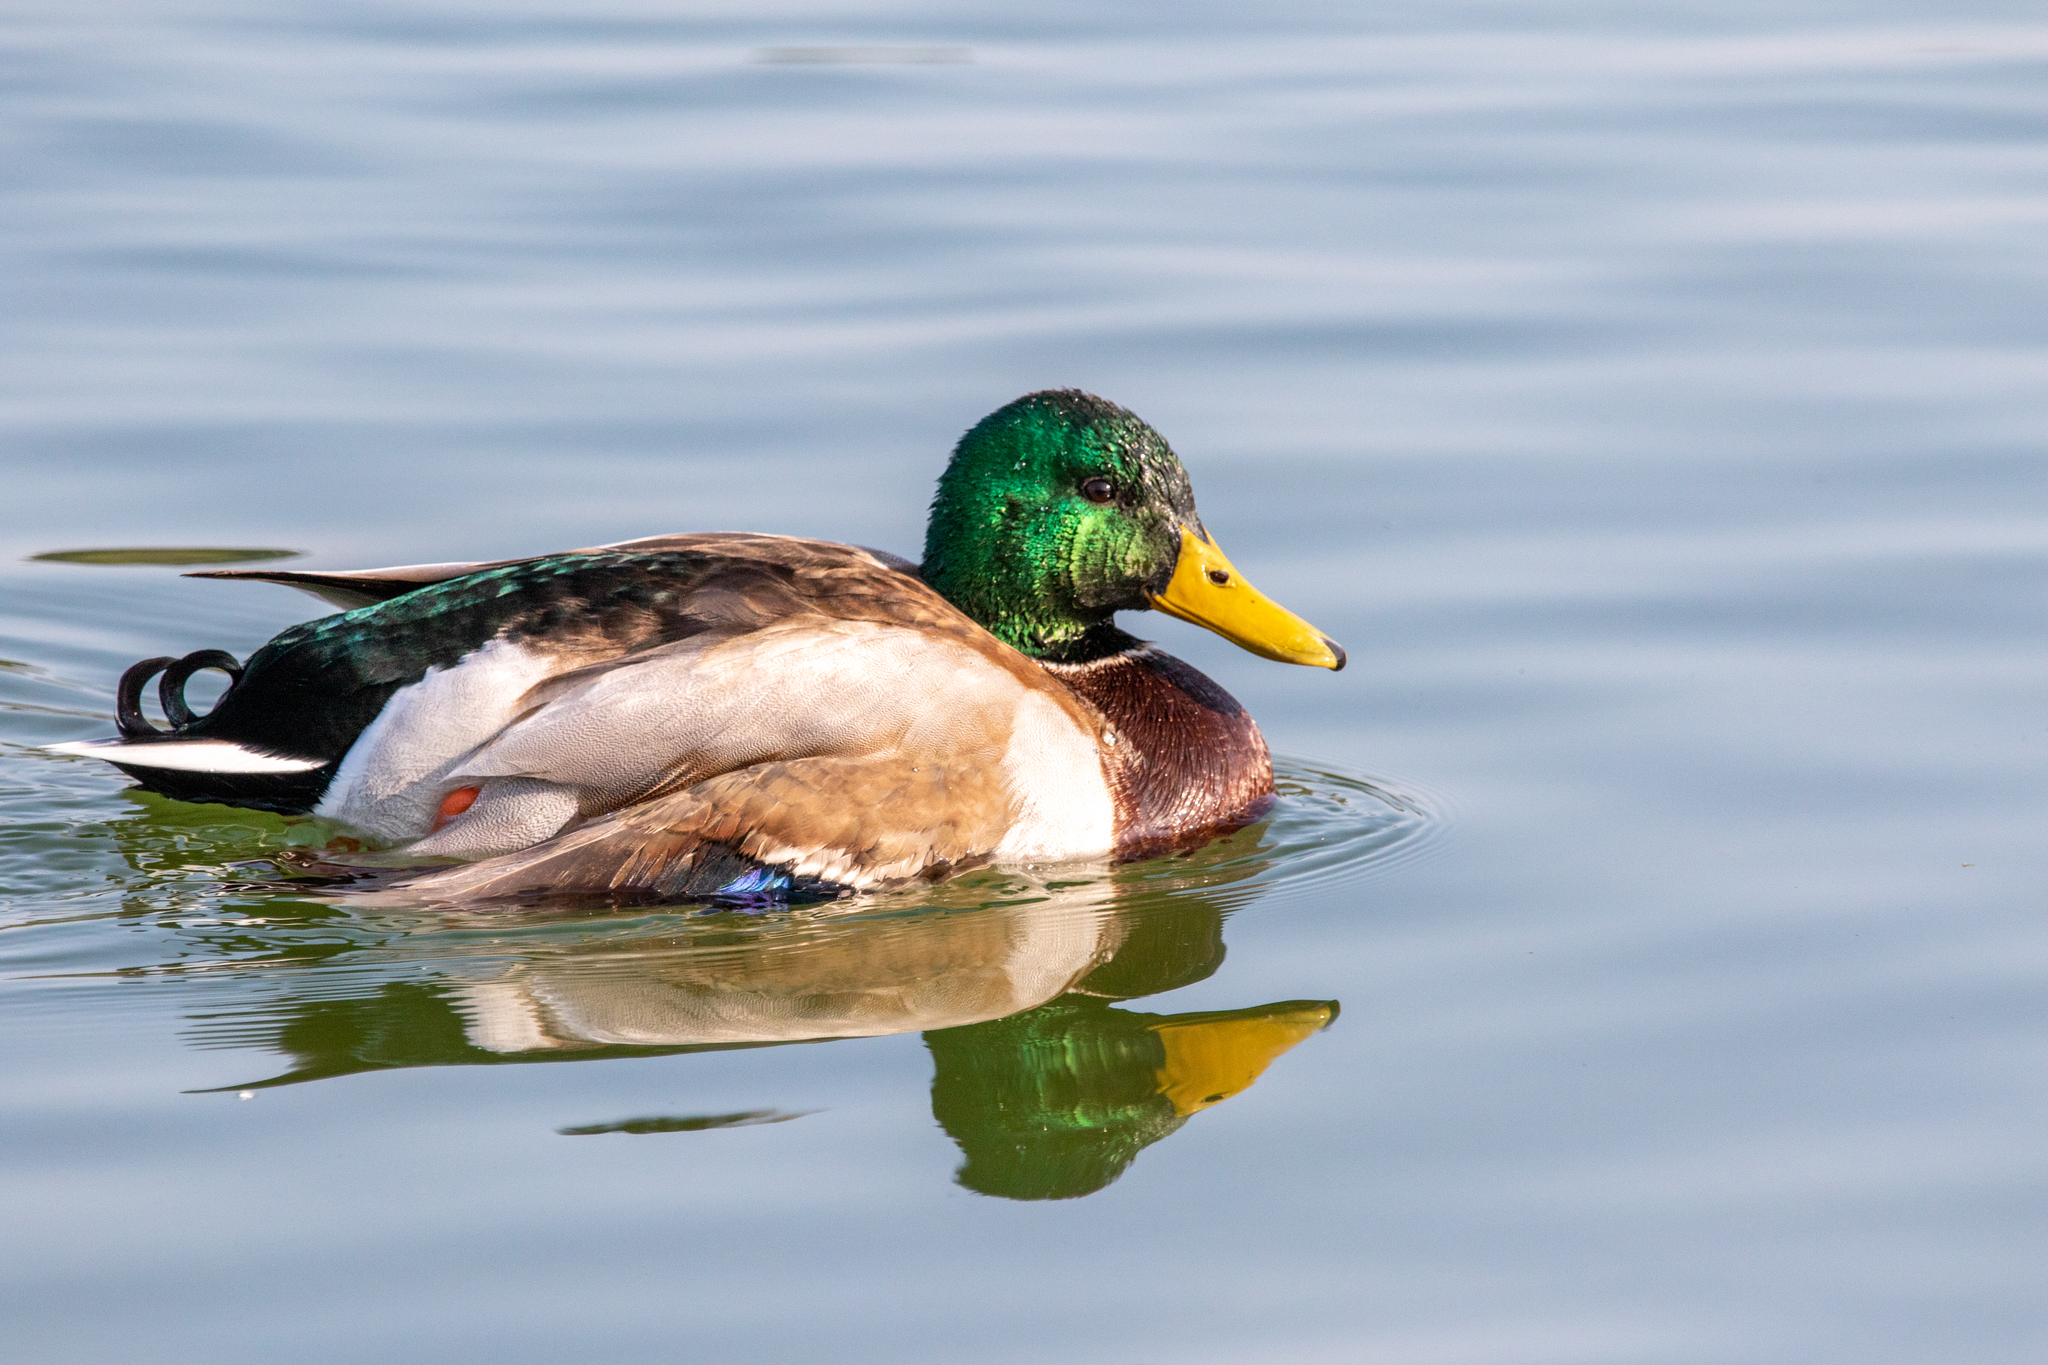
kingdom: Animalia
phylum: Chordata
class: Aves
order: Anseriformes
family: Anatidae
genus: Anas
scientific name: Anas platyrhynchos
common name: Mallard
